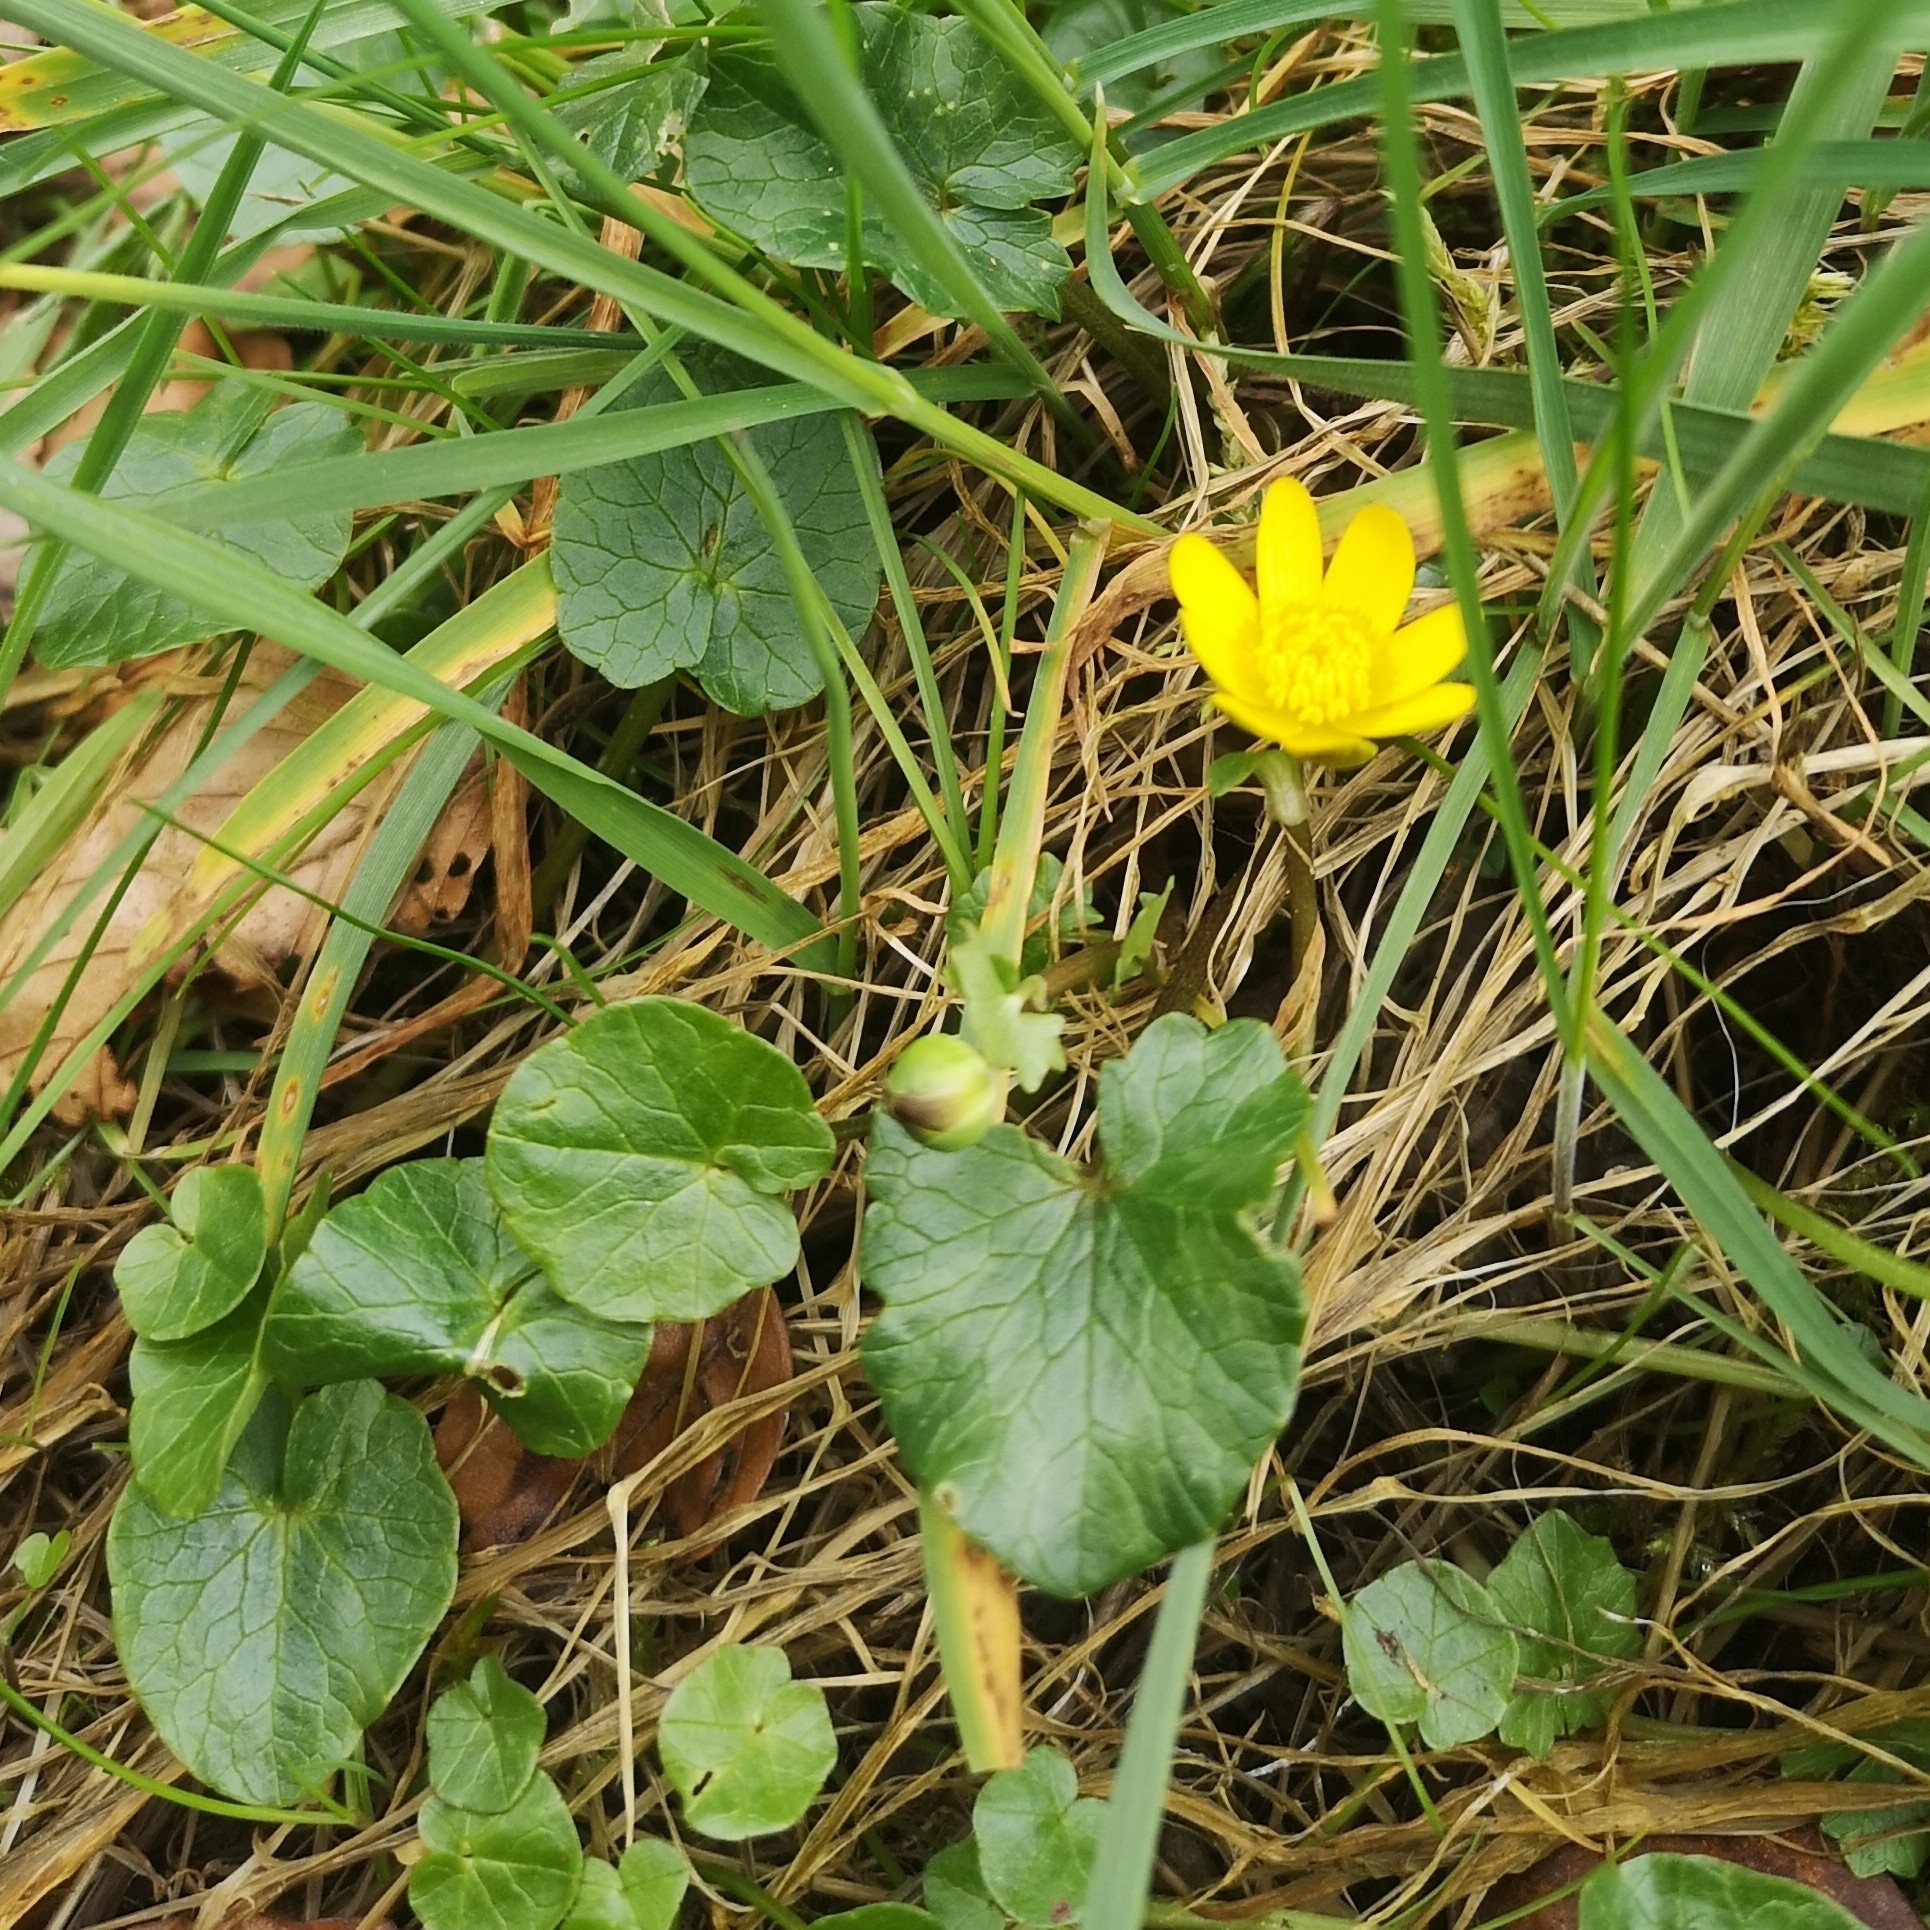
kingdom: Plantae
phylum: Tracheophyta
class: Magnoliopsida
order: Ranunculales
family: Ranunculaceae
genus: Ficaria
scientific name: Ficaria verna
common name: Lesser celandine
